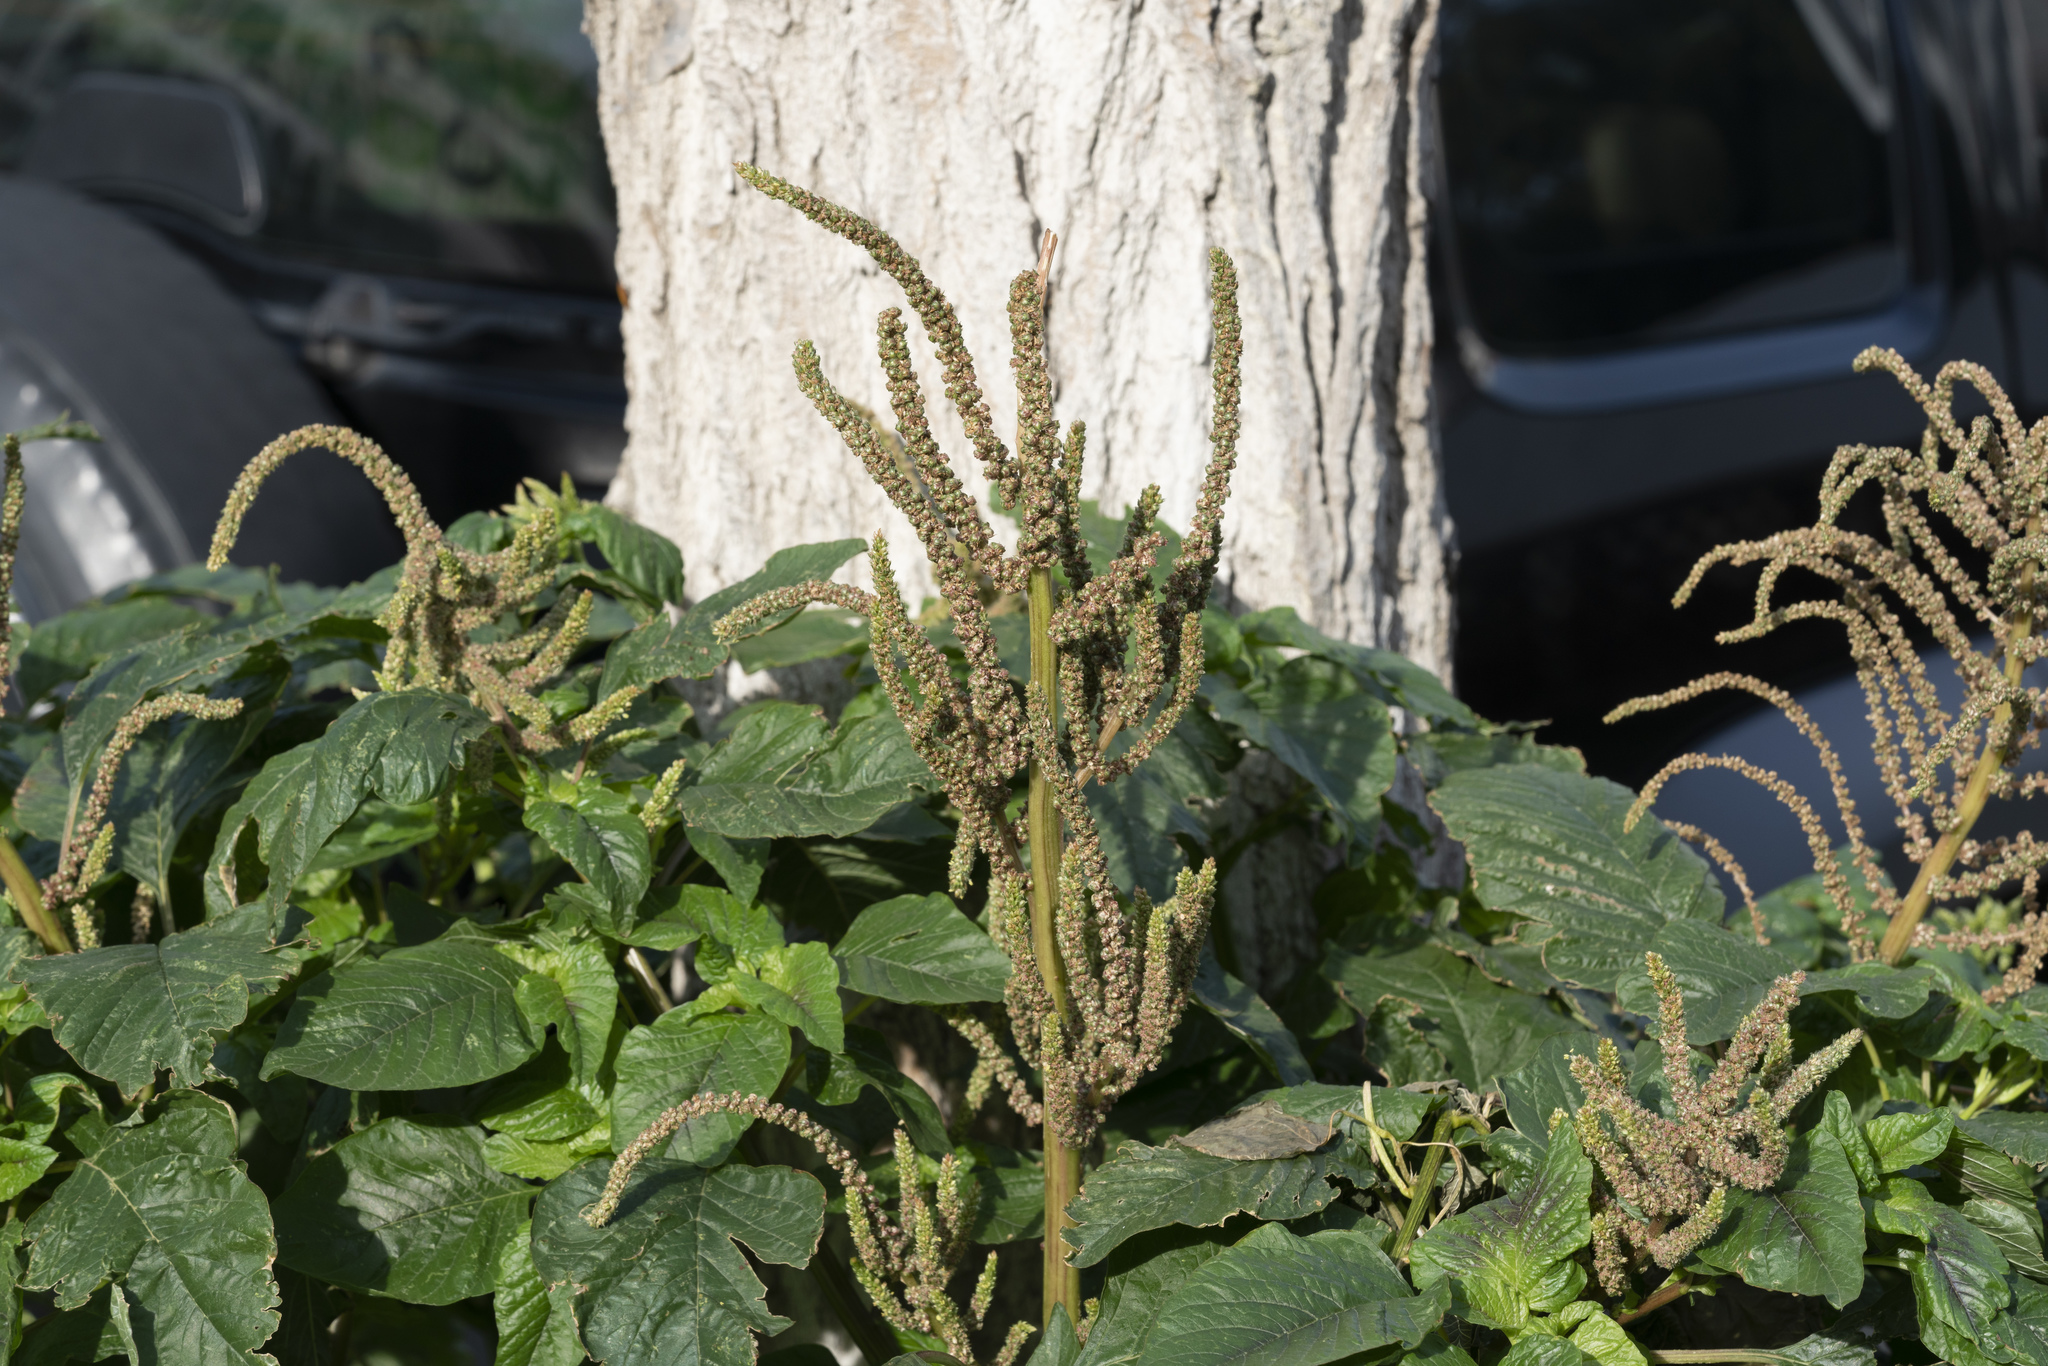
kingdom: Plantae
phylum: Tracheophyta
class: Magnoliopsida
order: Caryophyllales
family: Amaranthaceae
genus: Amaranthus
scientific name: Amaranthus viridis
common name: Slender amaranth
